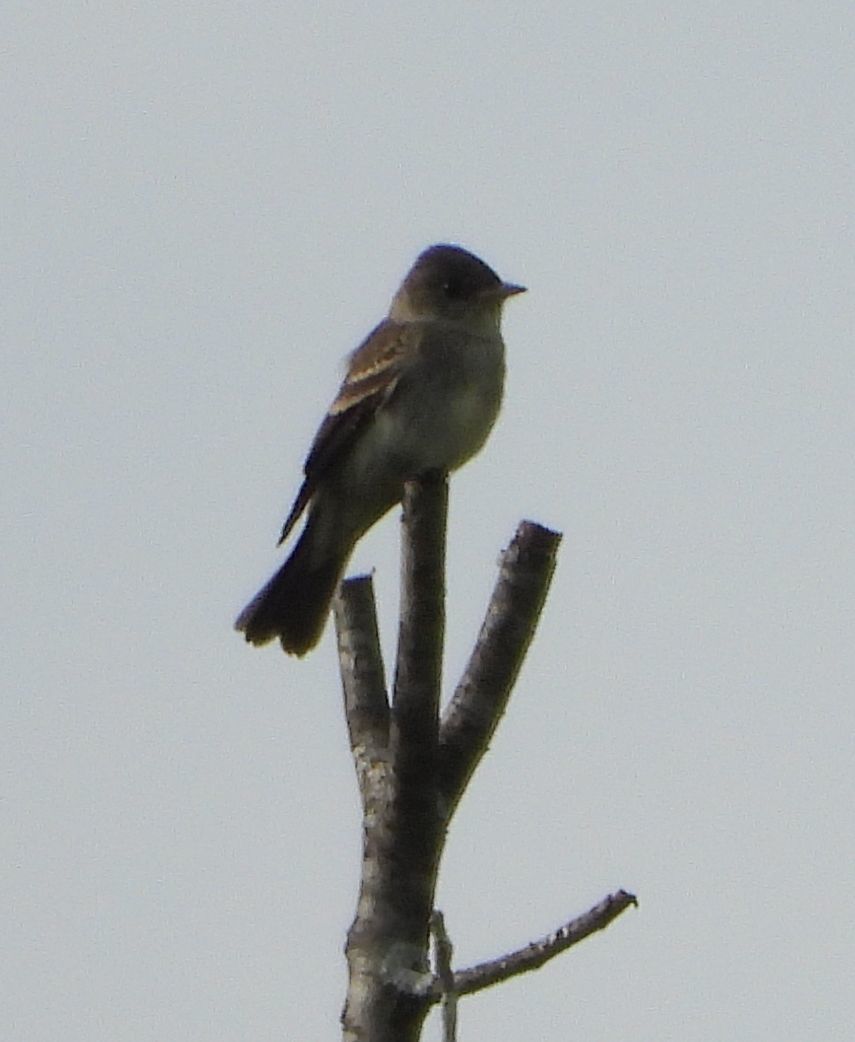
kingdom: Animalia
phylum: Chordata
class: Aves
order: Passeriformes
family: Tyrannidae
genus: Contopus
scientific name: Contopus virens
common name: Eastern wood-pewee
